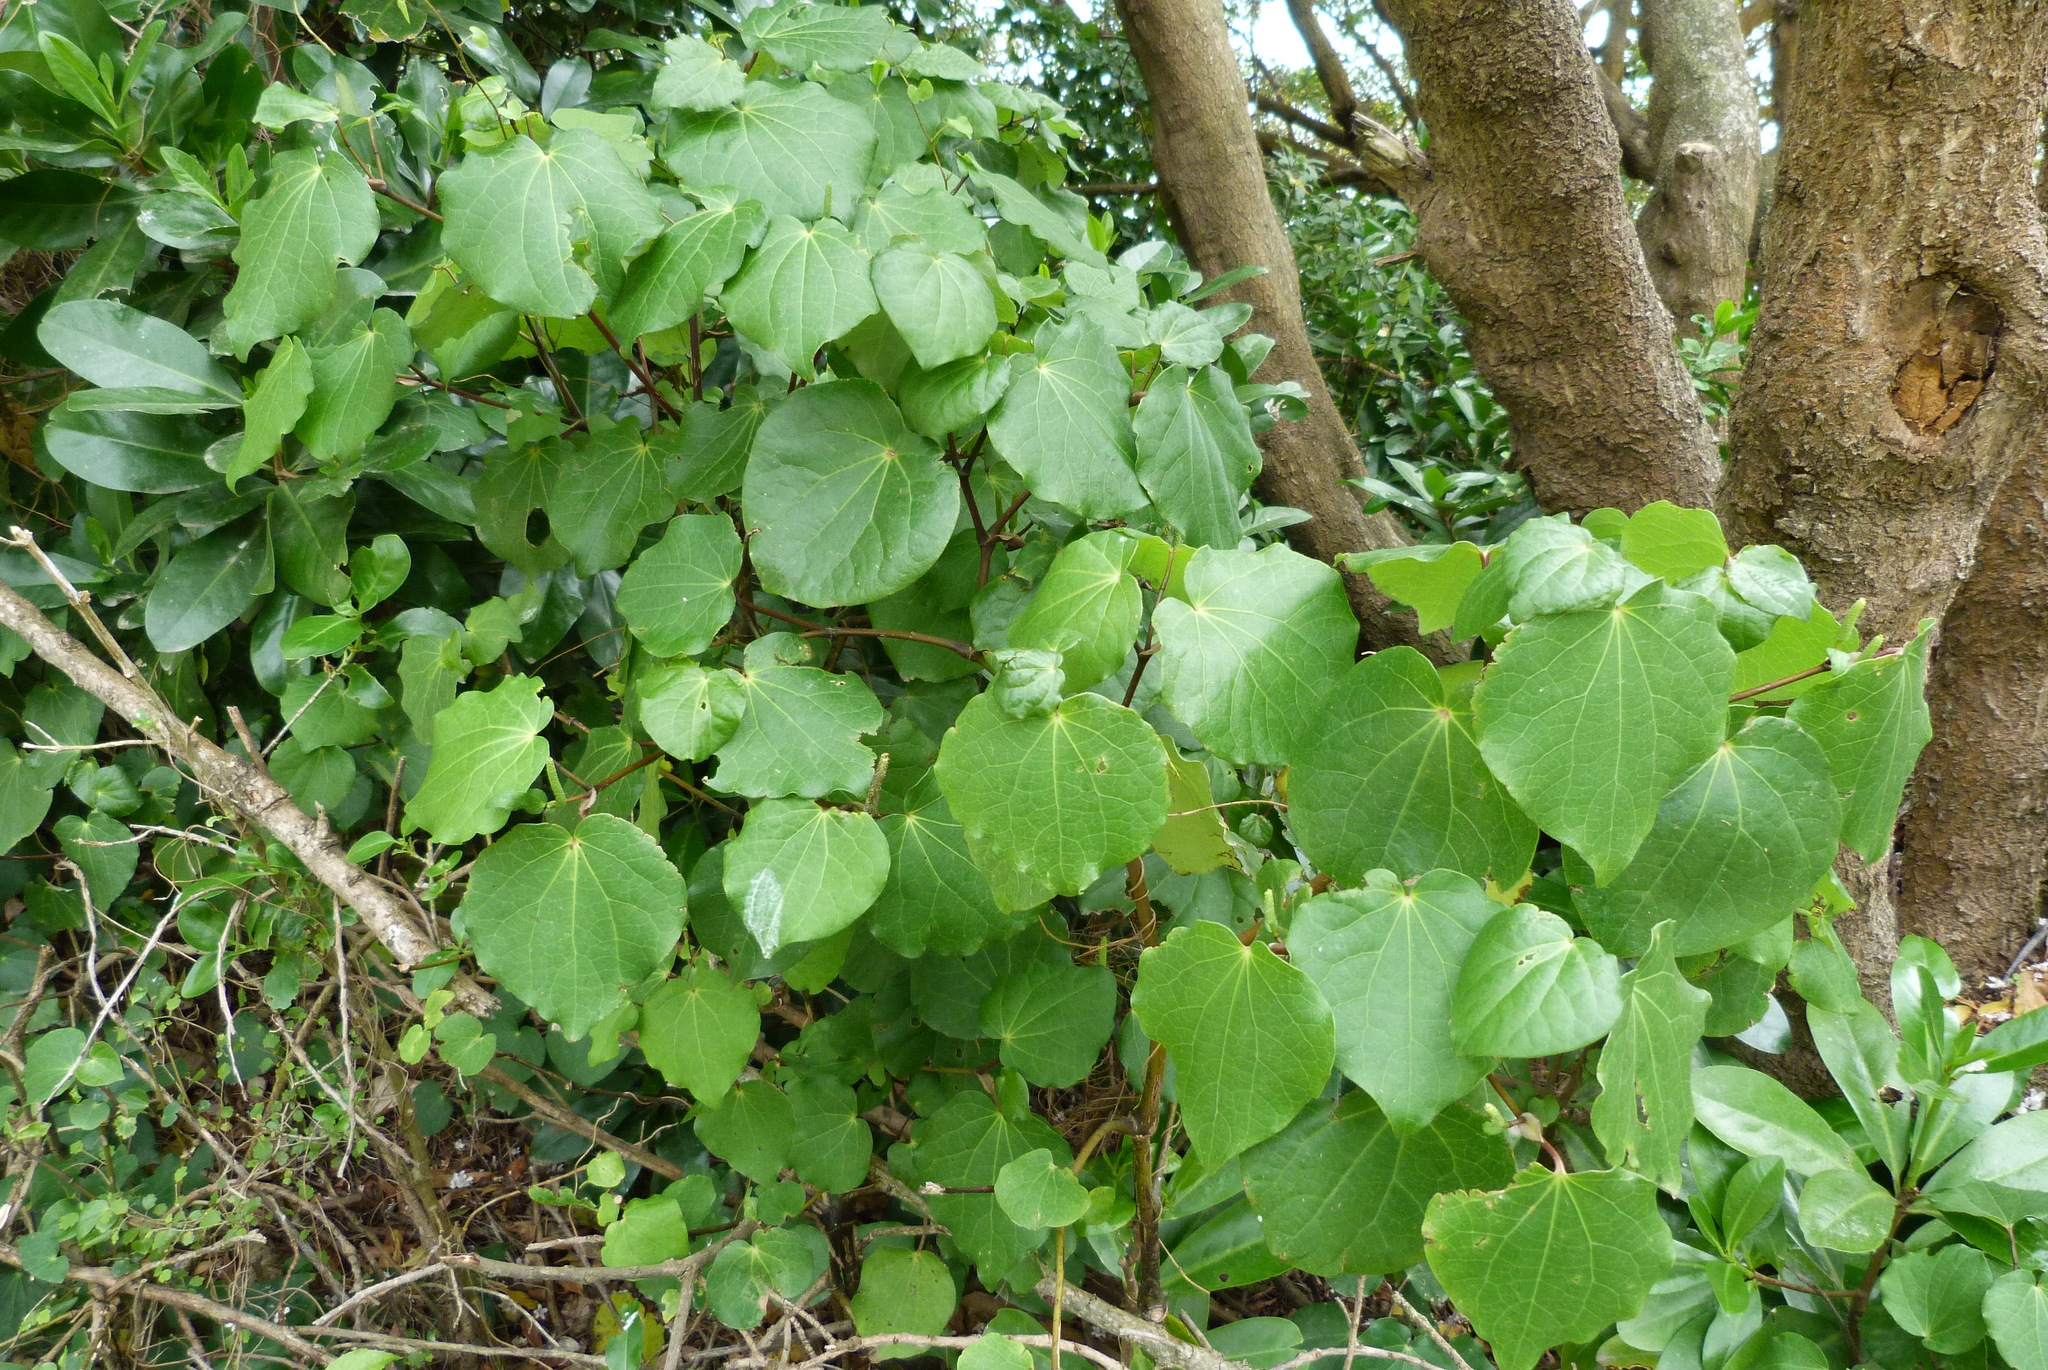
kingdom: Plantae
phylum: Tracheophyta
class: Magnoliopsida
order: Piperales
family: Piperaceae
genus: Macropiper
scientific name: Macropiper excelsum
